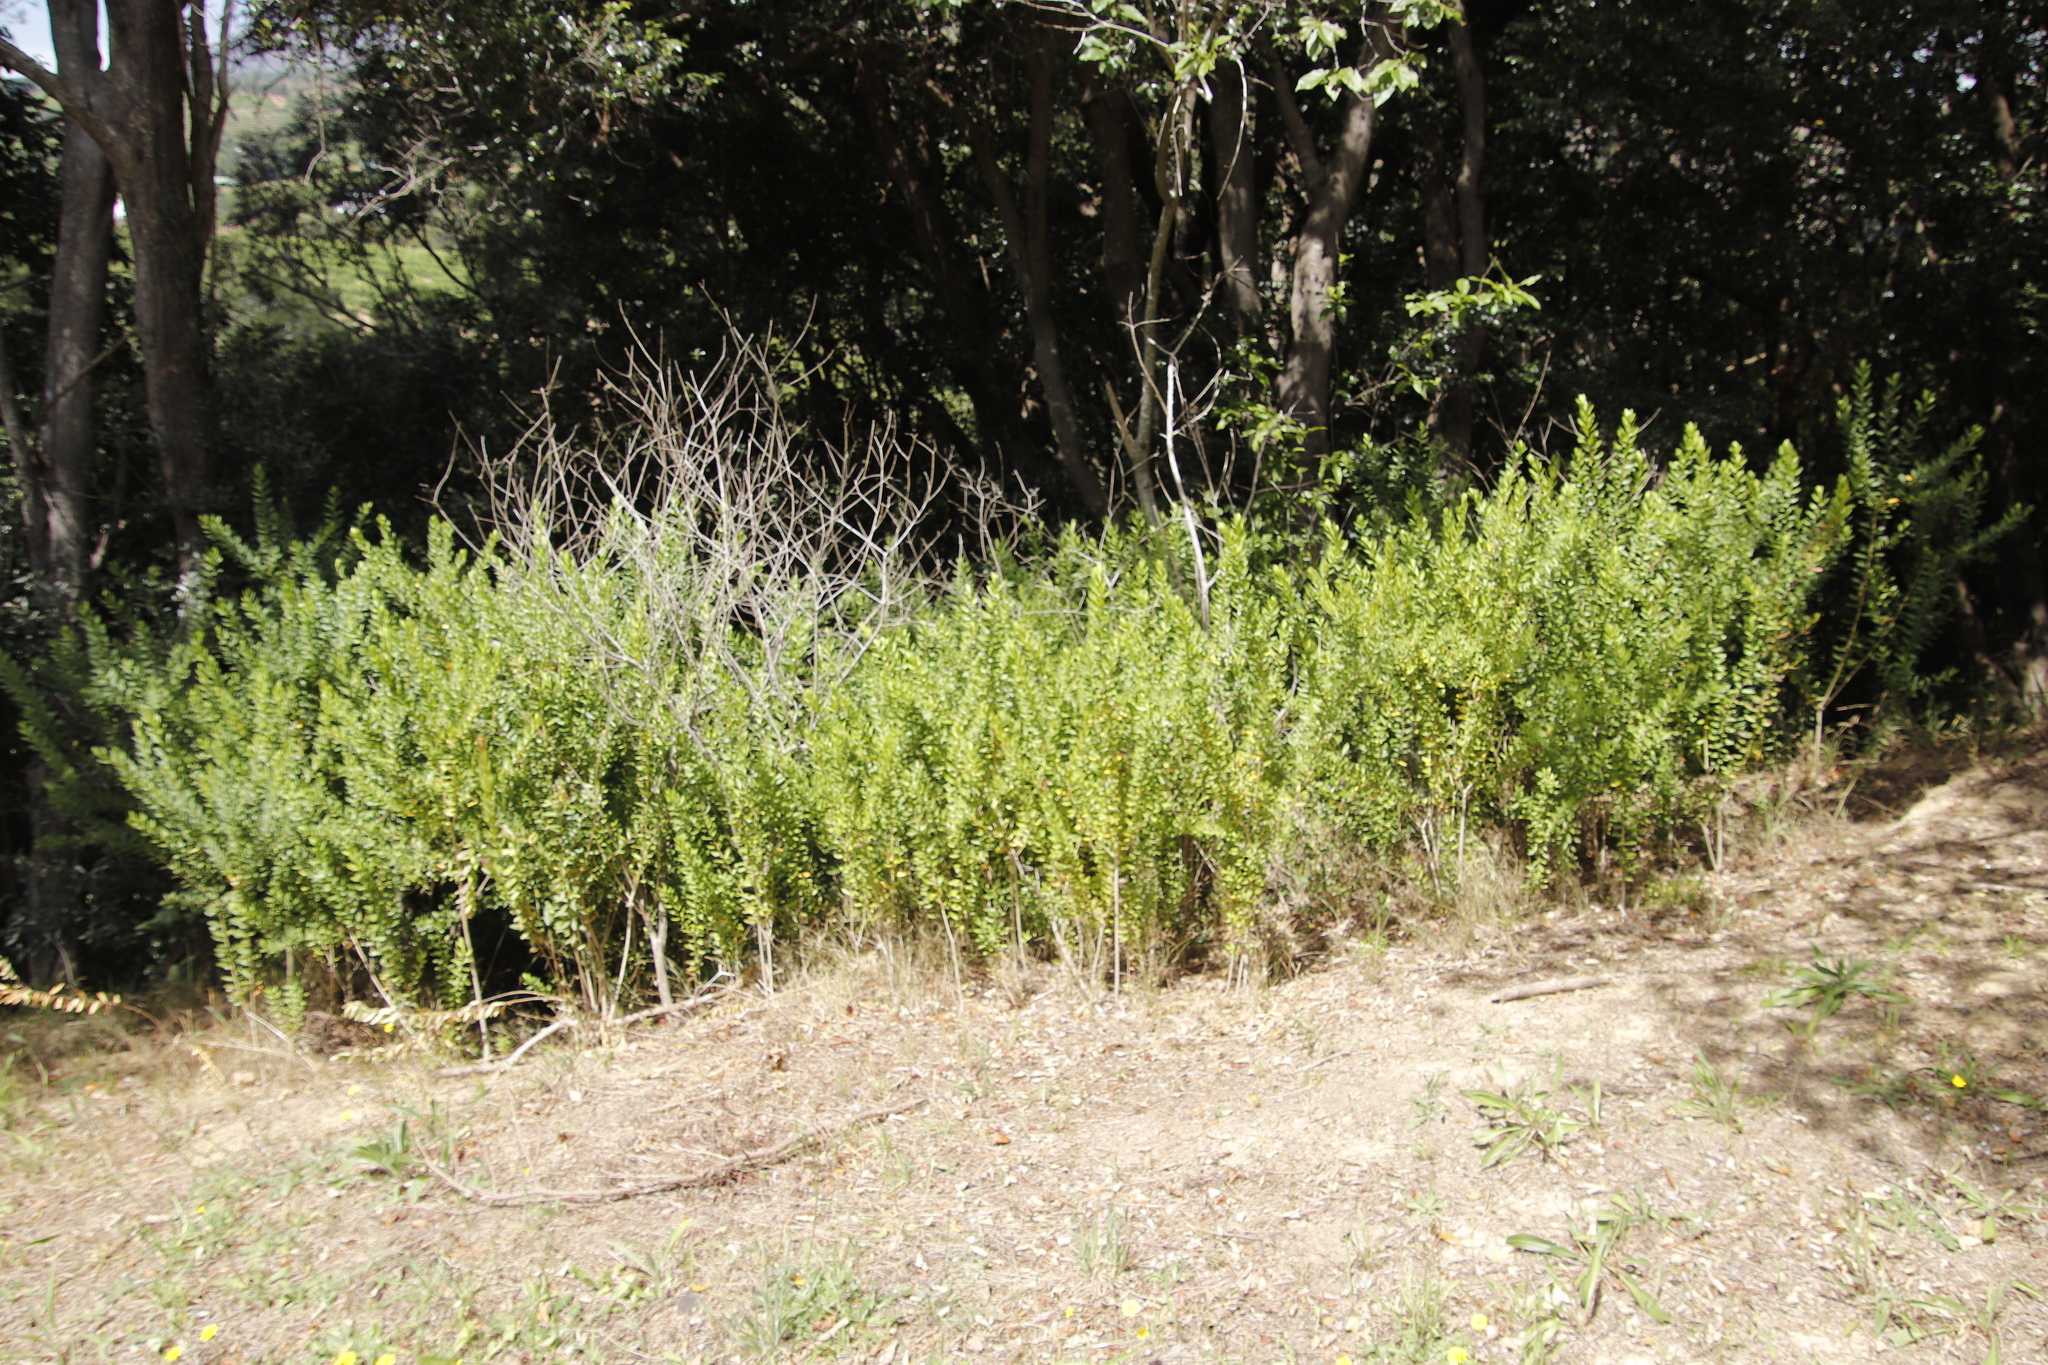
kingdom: Plantae
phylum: Tracheophyta
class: Magnoliopsida
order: Fabales
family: Polygalaceae
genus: Polygala
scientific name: Polygala myrtifolia
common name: Myrtle-leaf milkwort
